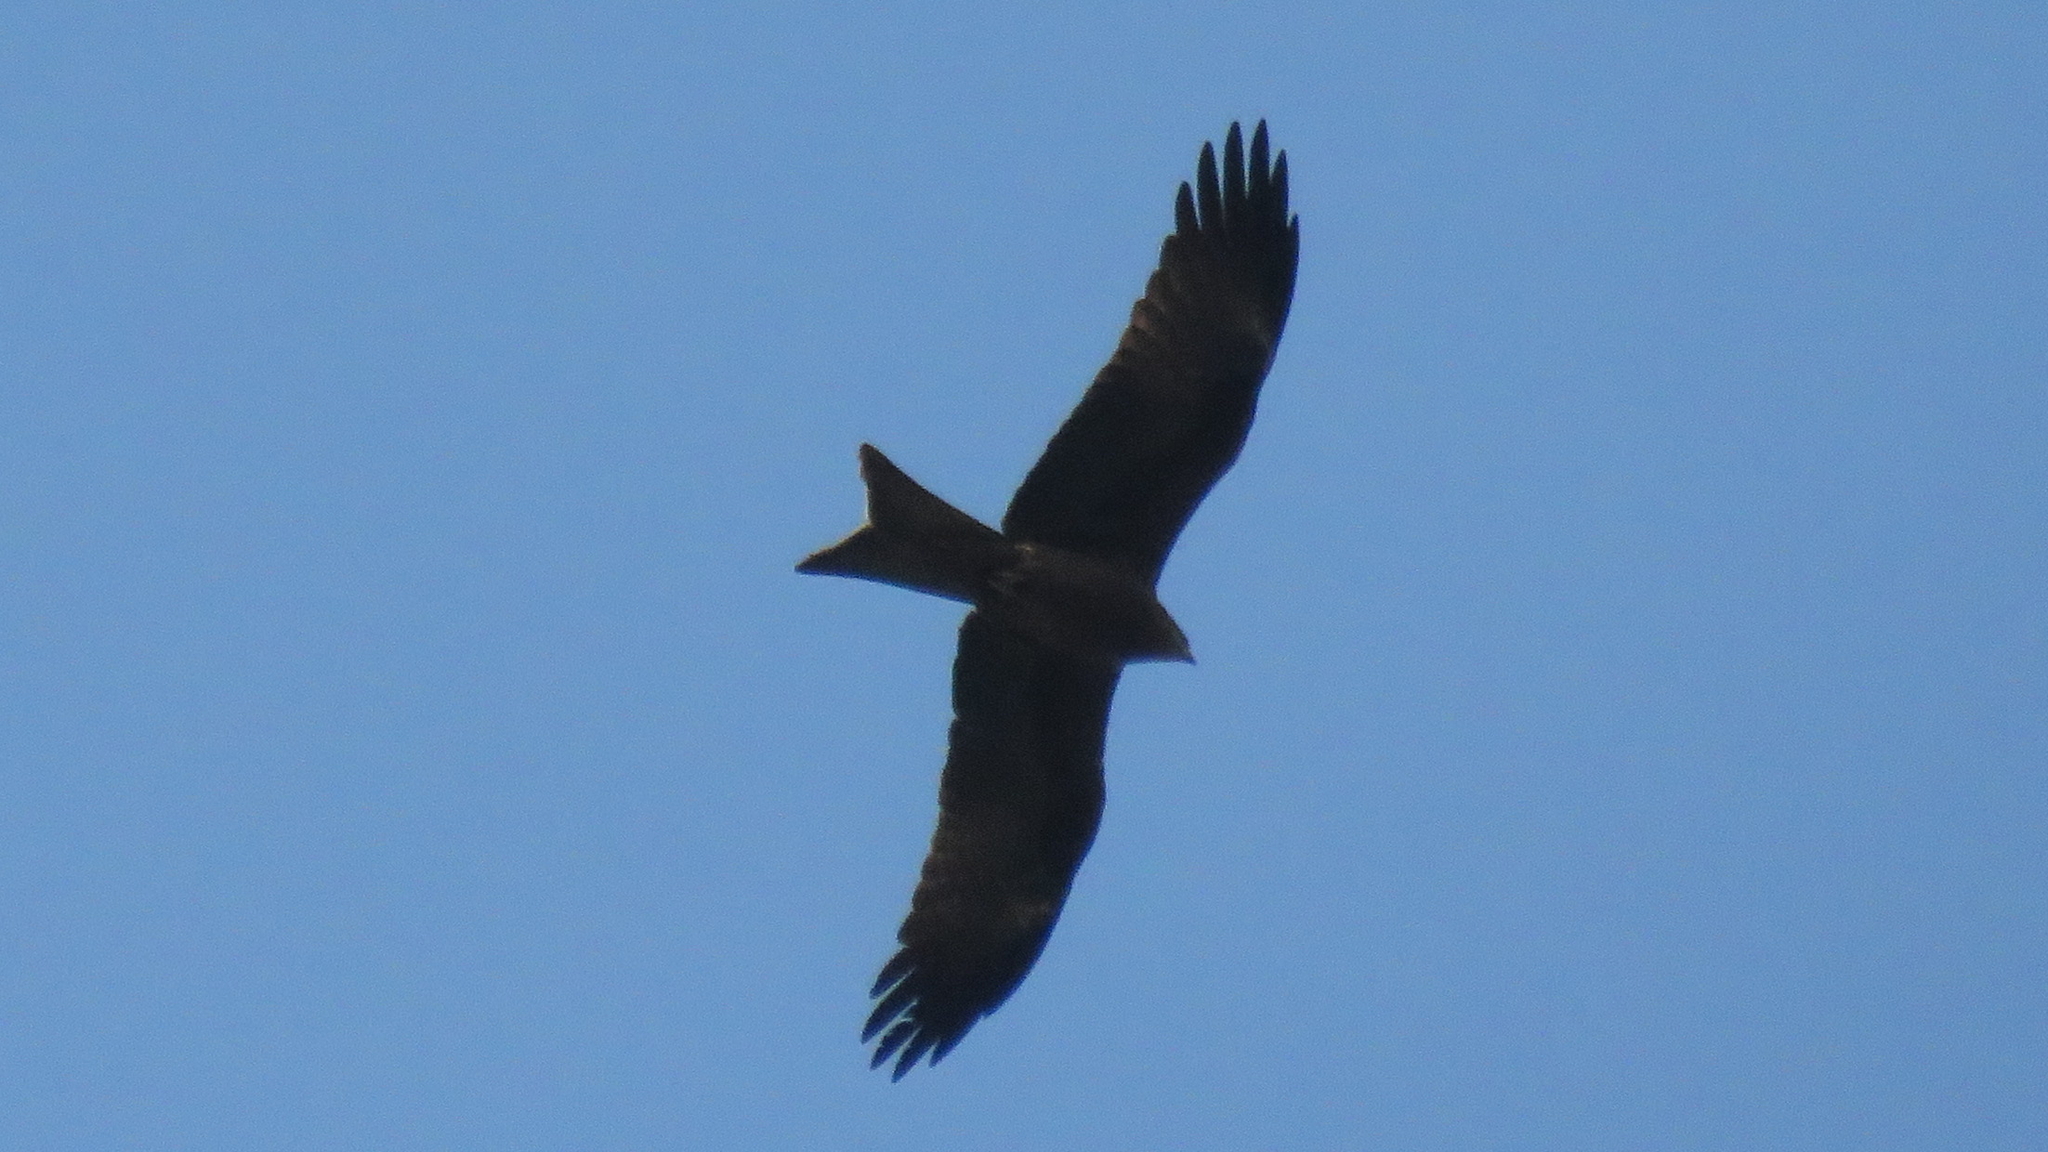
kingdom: Animalia
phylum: Chordata
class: Aves
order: Accipitriformes
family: Accipitridae
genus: Milvus
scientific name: Milvus migrans
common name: Black kite
